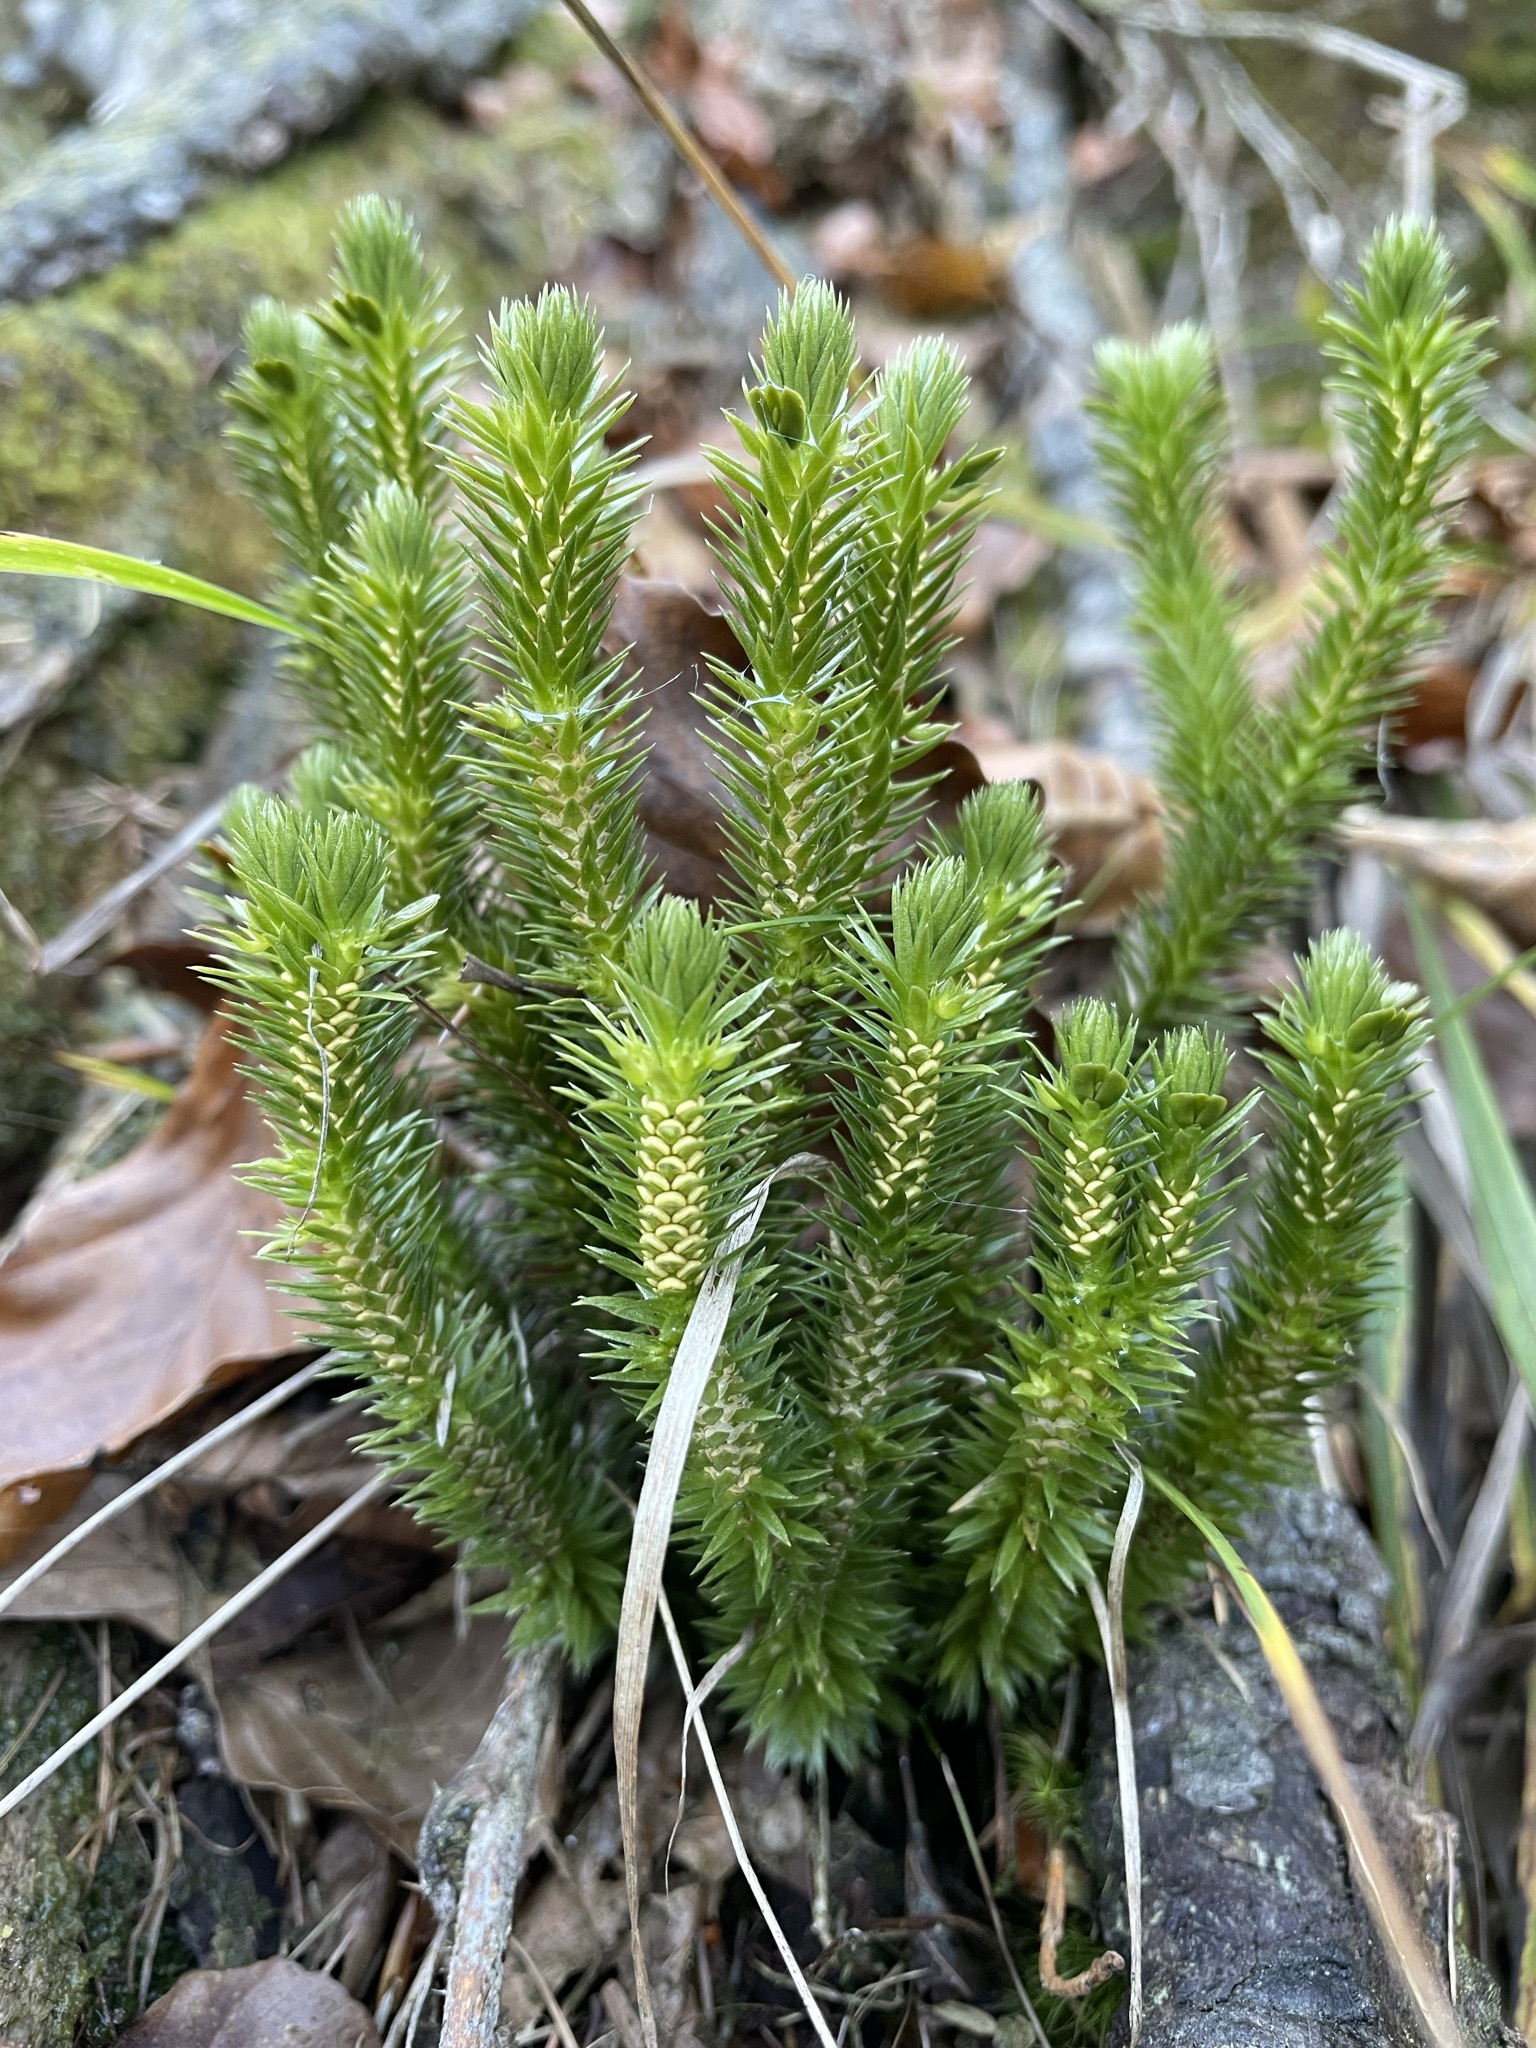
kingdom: Plantae
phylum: Tracheophyta
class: Lycopodiopsida
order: Lycopodiales
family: Lycopodiaceae
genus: Huperzia
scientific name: Huperzia selago
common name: Northern firmoss
